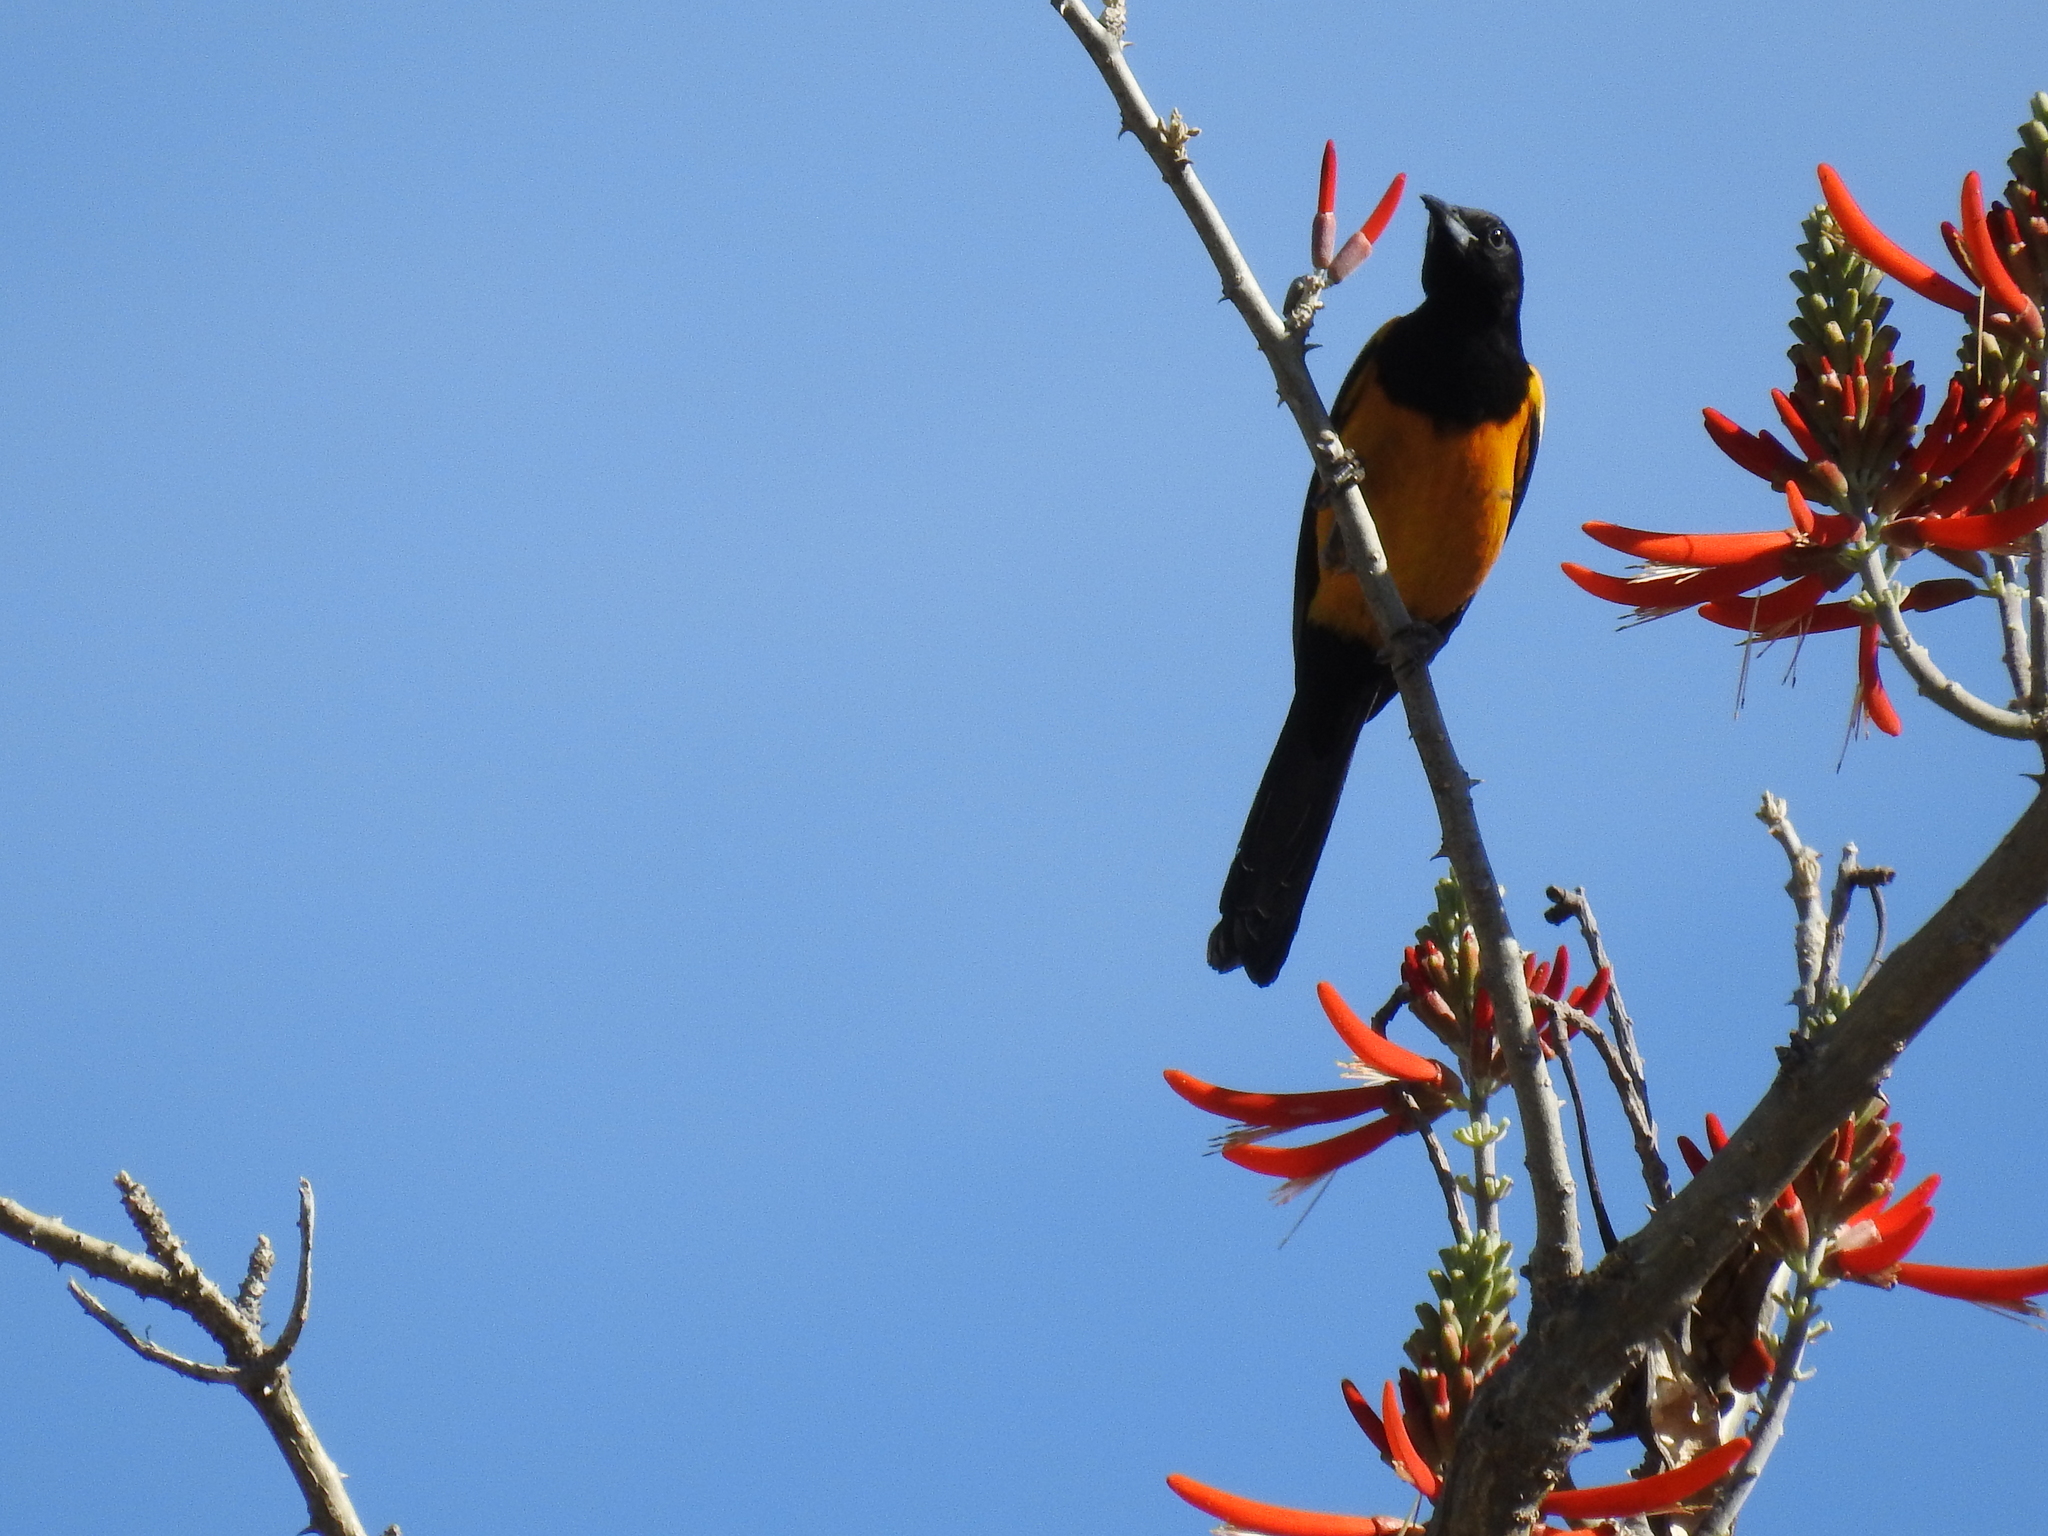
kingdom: Plantae
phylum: Tracheophyta
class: Magnoliopsida
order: Fabales
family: Fabaceae
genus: Erythrina
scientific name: Erythrina flabelliformis
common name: Chilicote
